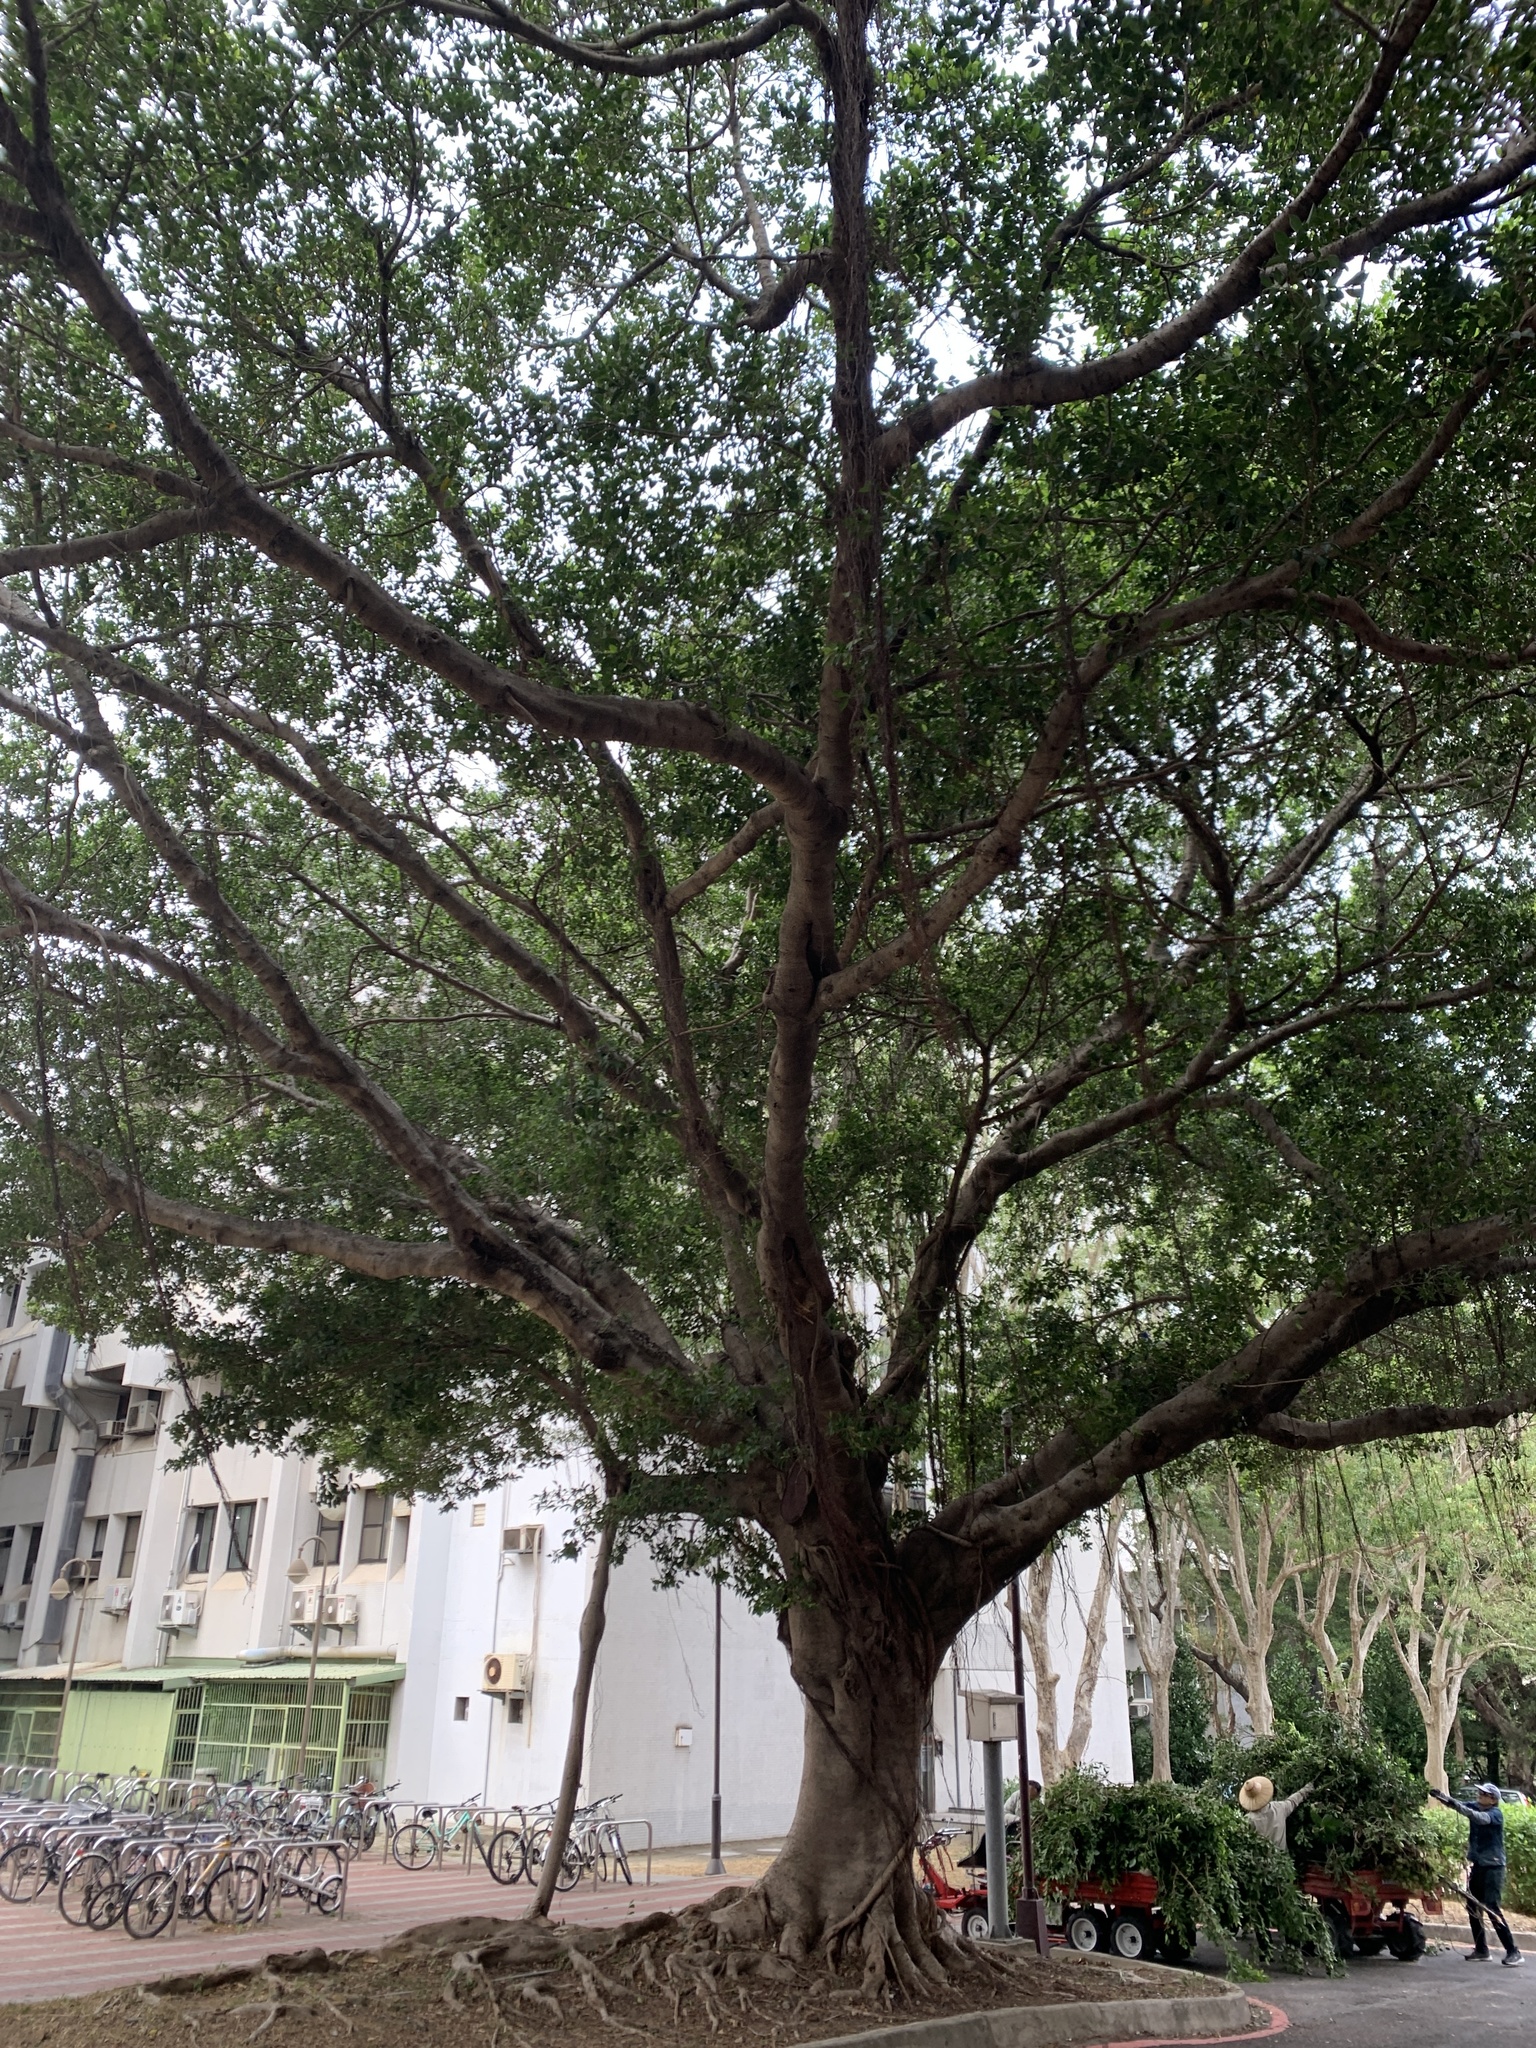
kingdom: Plantae
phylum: Tracheophyta
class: Magnoliopsida
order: Rosales
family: Moraceae
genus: Ficus
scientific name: Ficus microcarpa
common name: Chinese banyan
